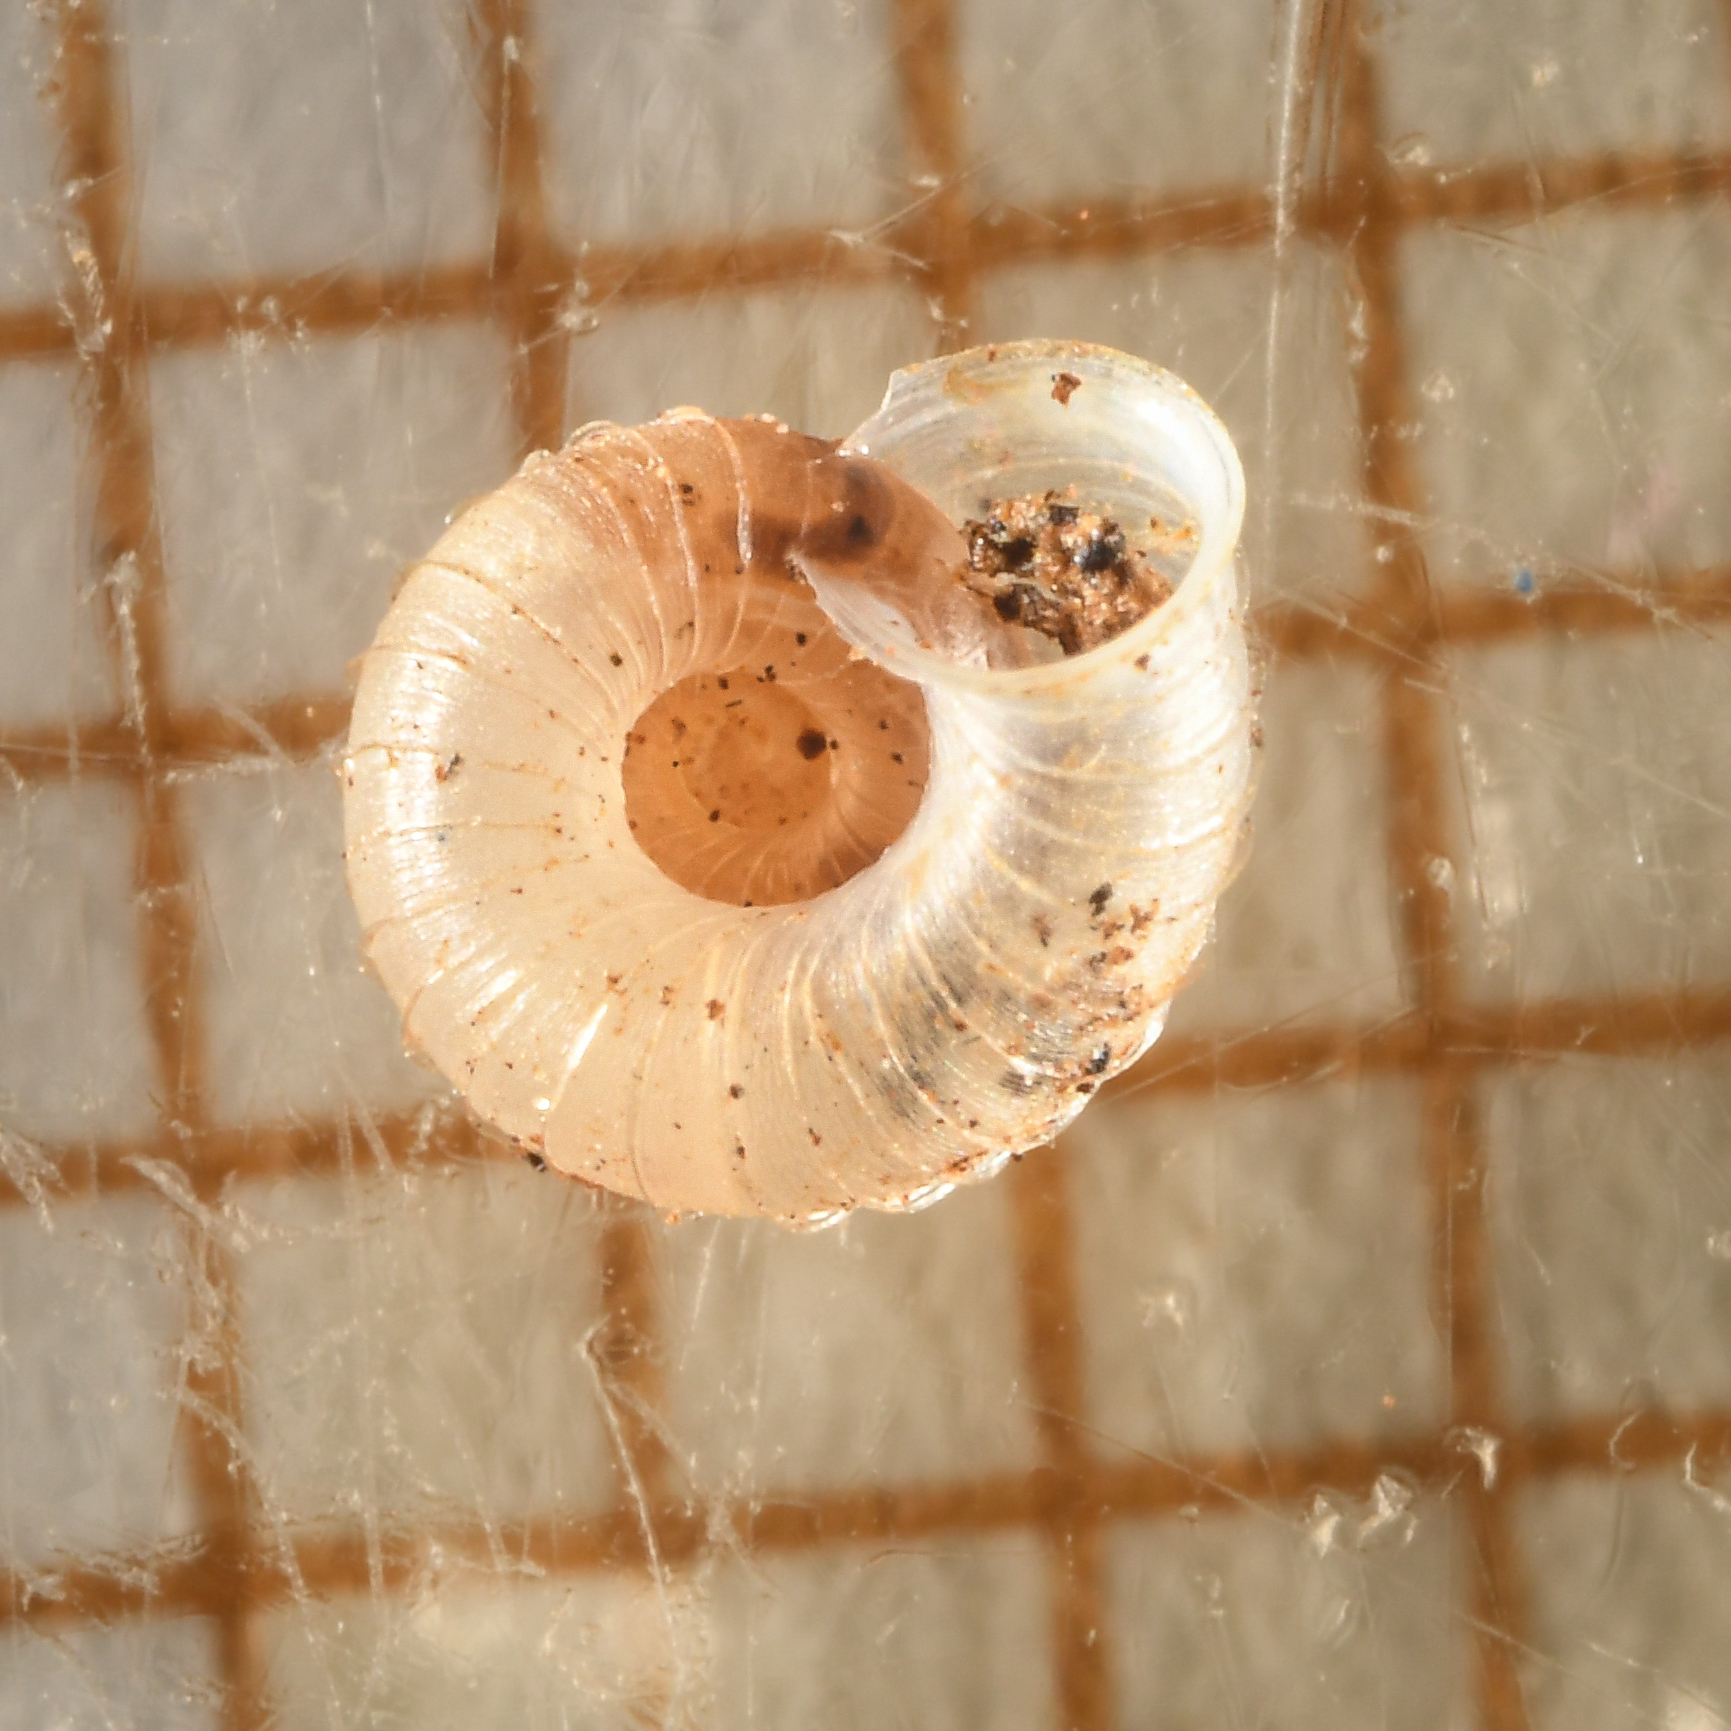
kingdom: Animalia
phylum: Mollusca
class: Gastropoda
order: Stylommatophora
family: Valloniidae
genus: Vallonia
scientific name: Vallonia costata
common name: Ribbed grass snail
